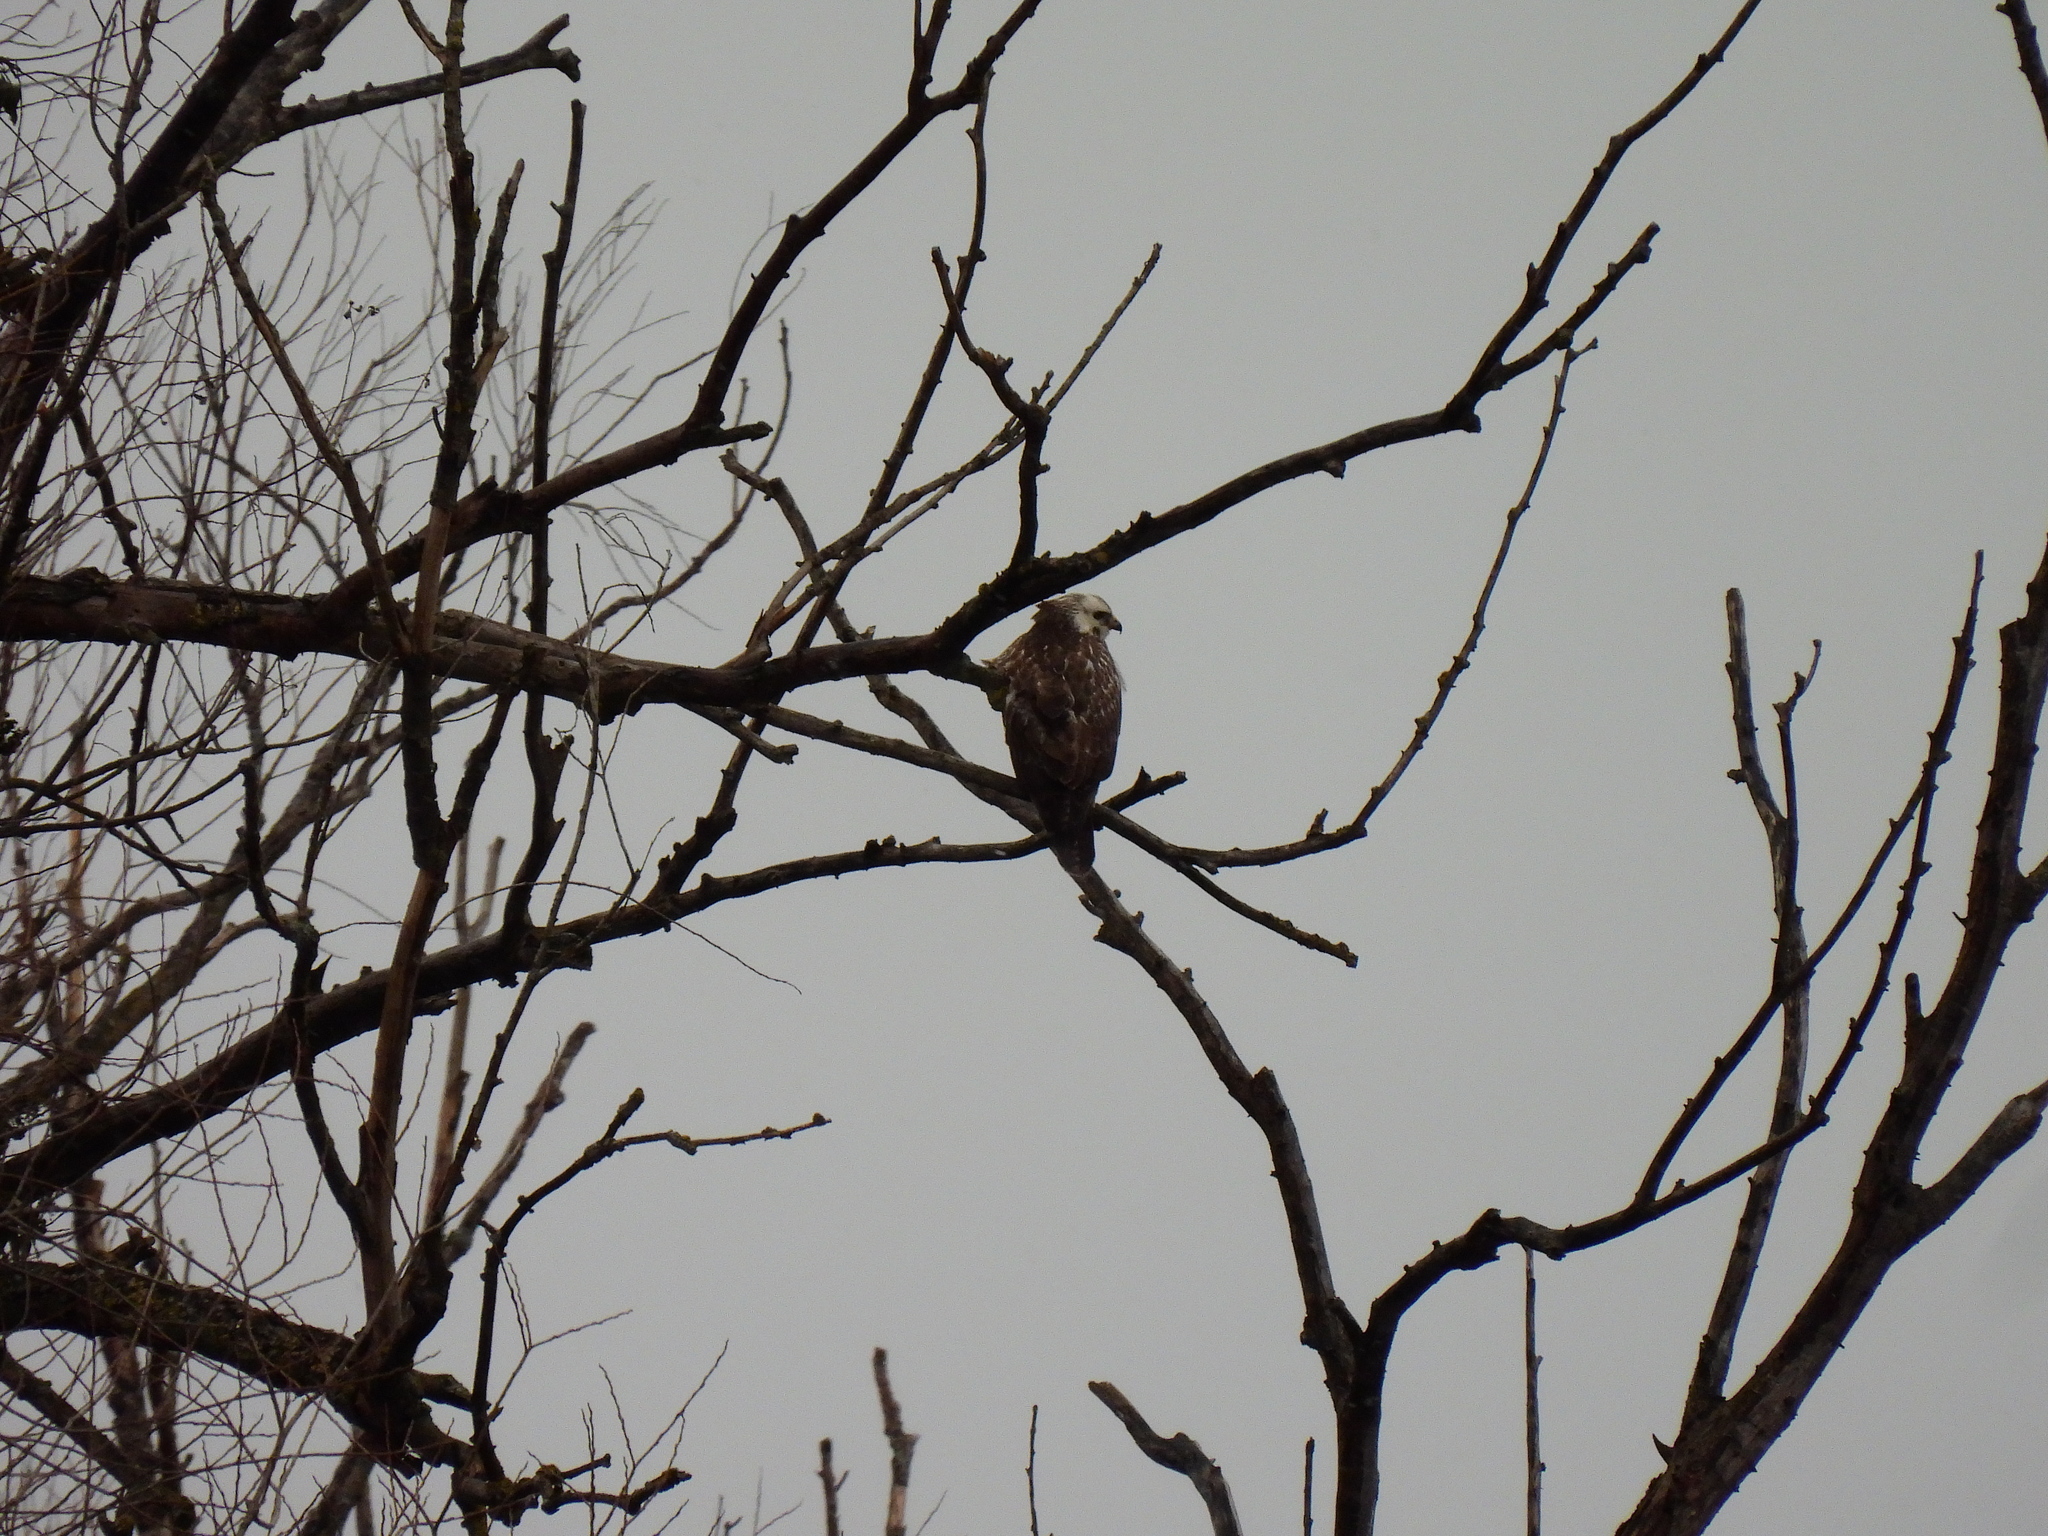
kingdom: Animalia
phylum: Chordata
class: Aves
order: Accipitriformes
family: Accipitridae
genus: Buteo
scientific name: Buteo buteo
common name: Common buzzard
